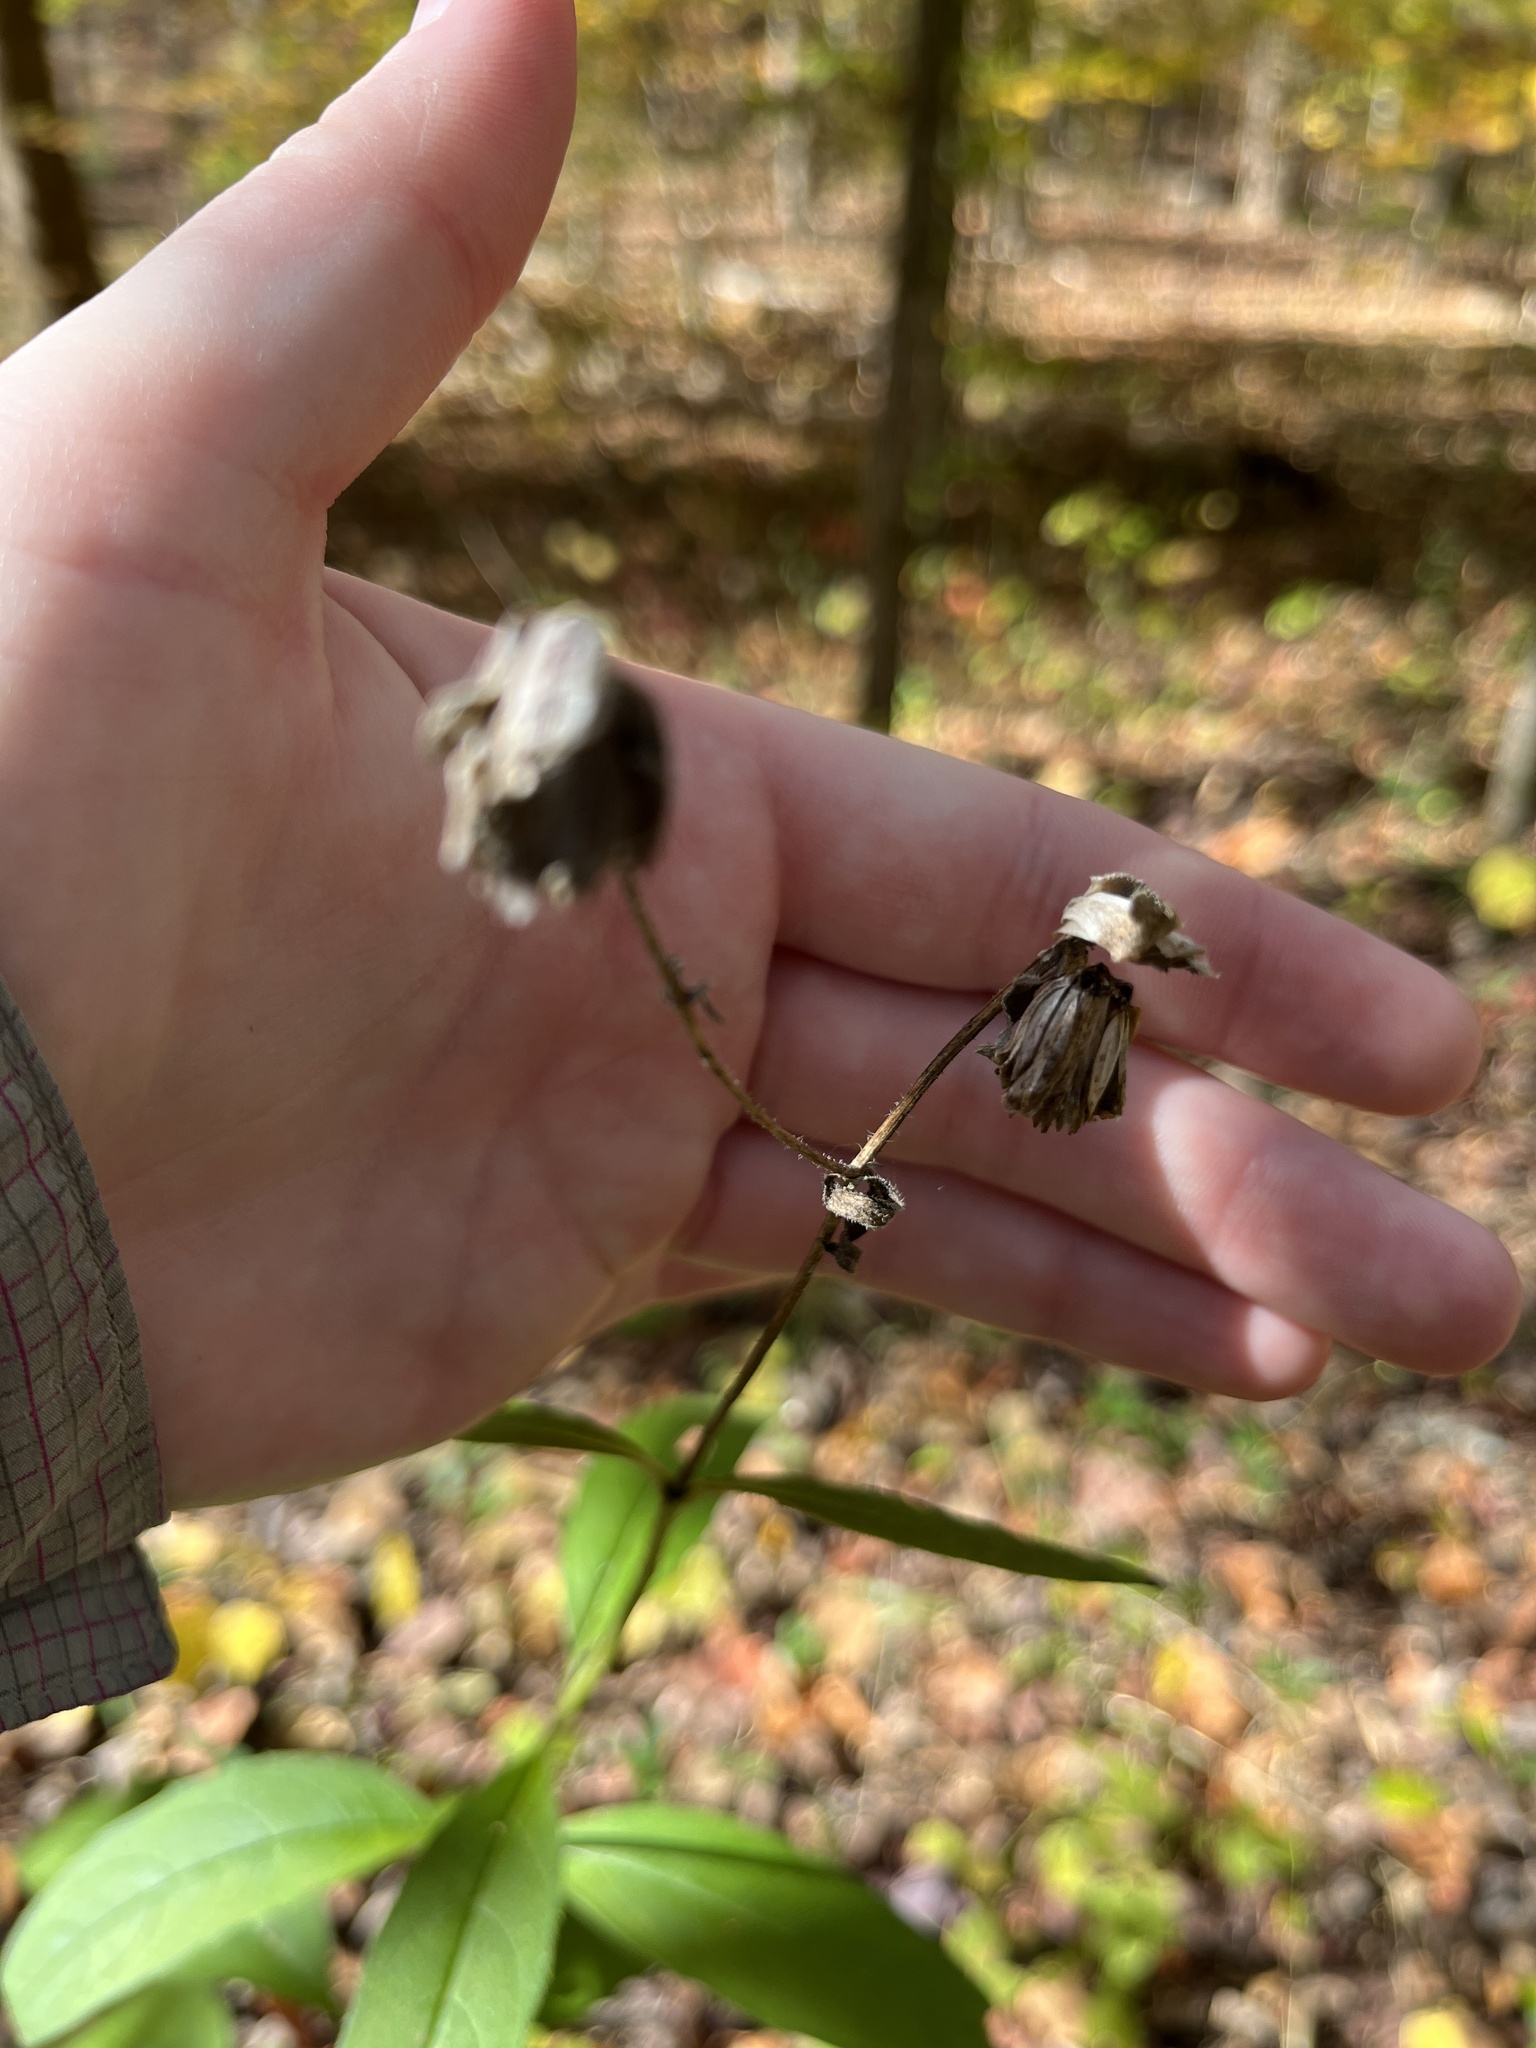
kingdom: Plantae
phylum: Tracheophyta
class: Magnoliopsida
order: Asterales
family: Asteraceae
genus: Silphium
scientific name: Silphium asteriscus
